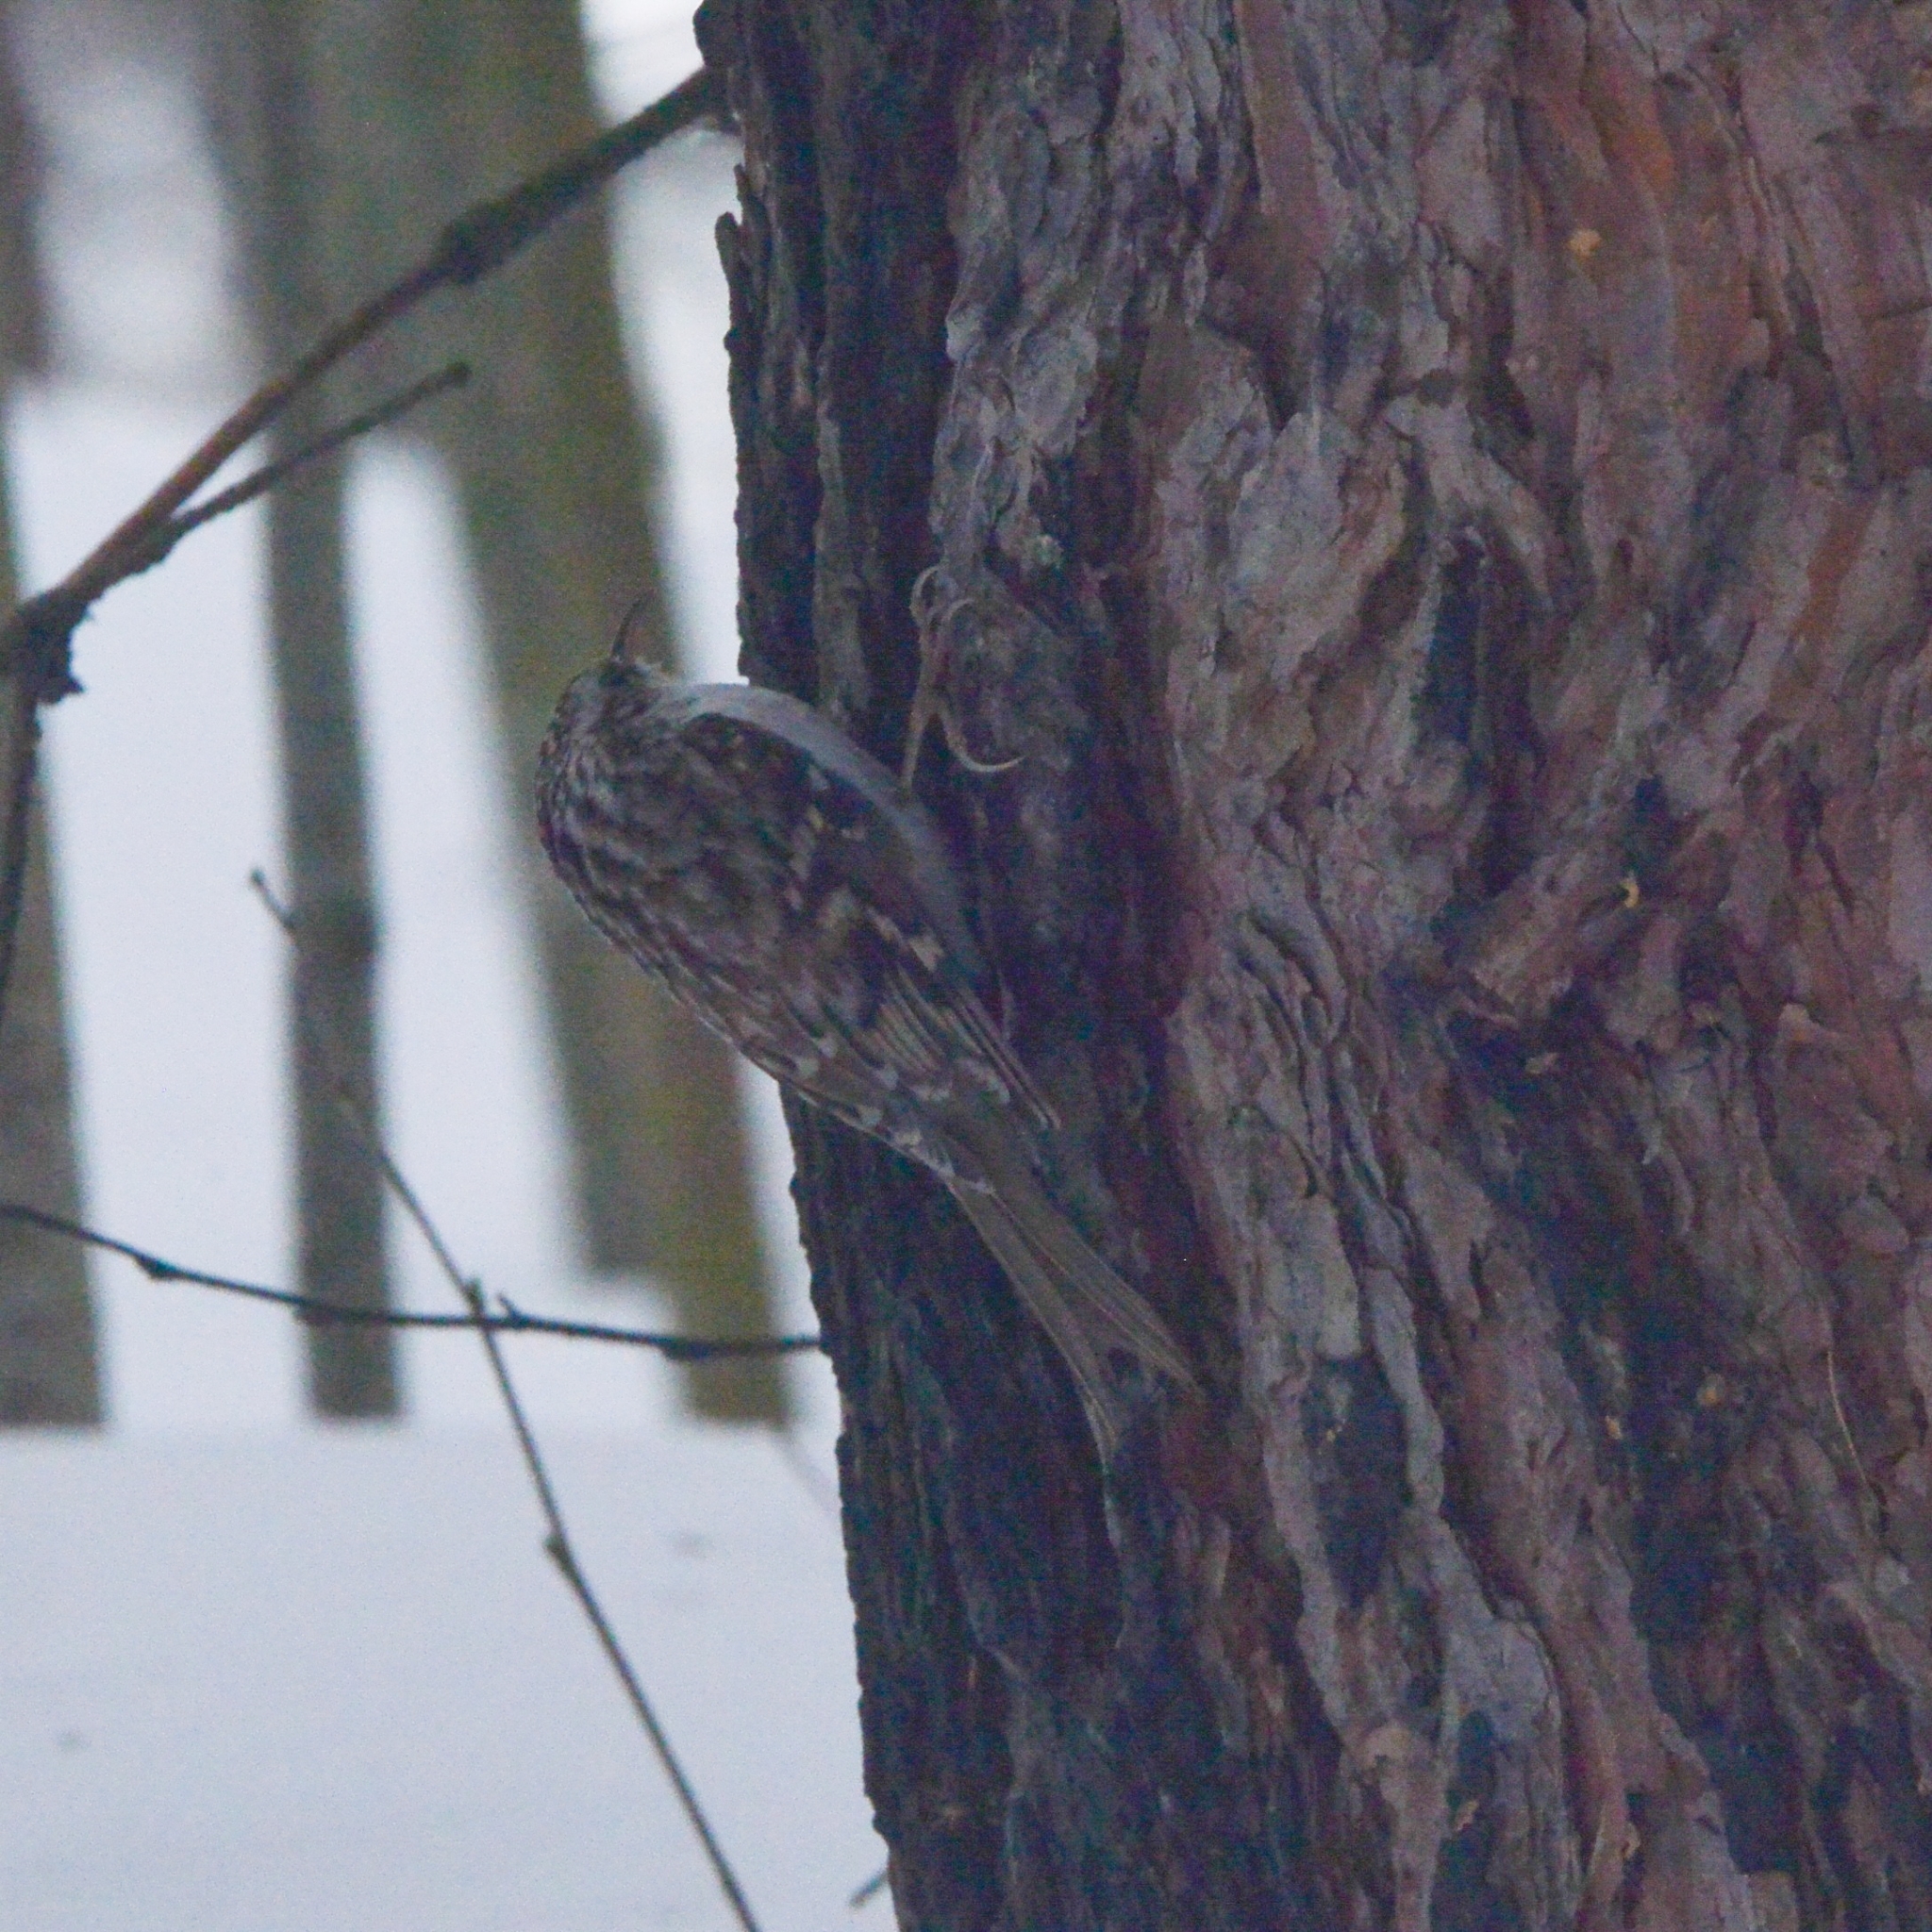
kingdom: Animalia
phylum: Chordata
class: Aves
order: Passeriformes
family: Certhiidae
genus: Certhia
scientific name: Certhia familiaris
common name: Eurasian treecreeper
